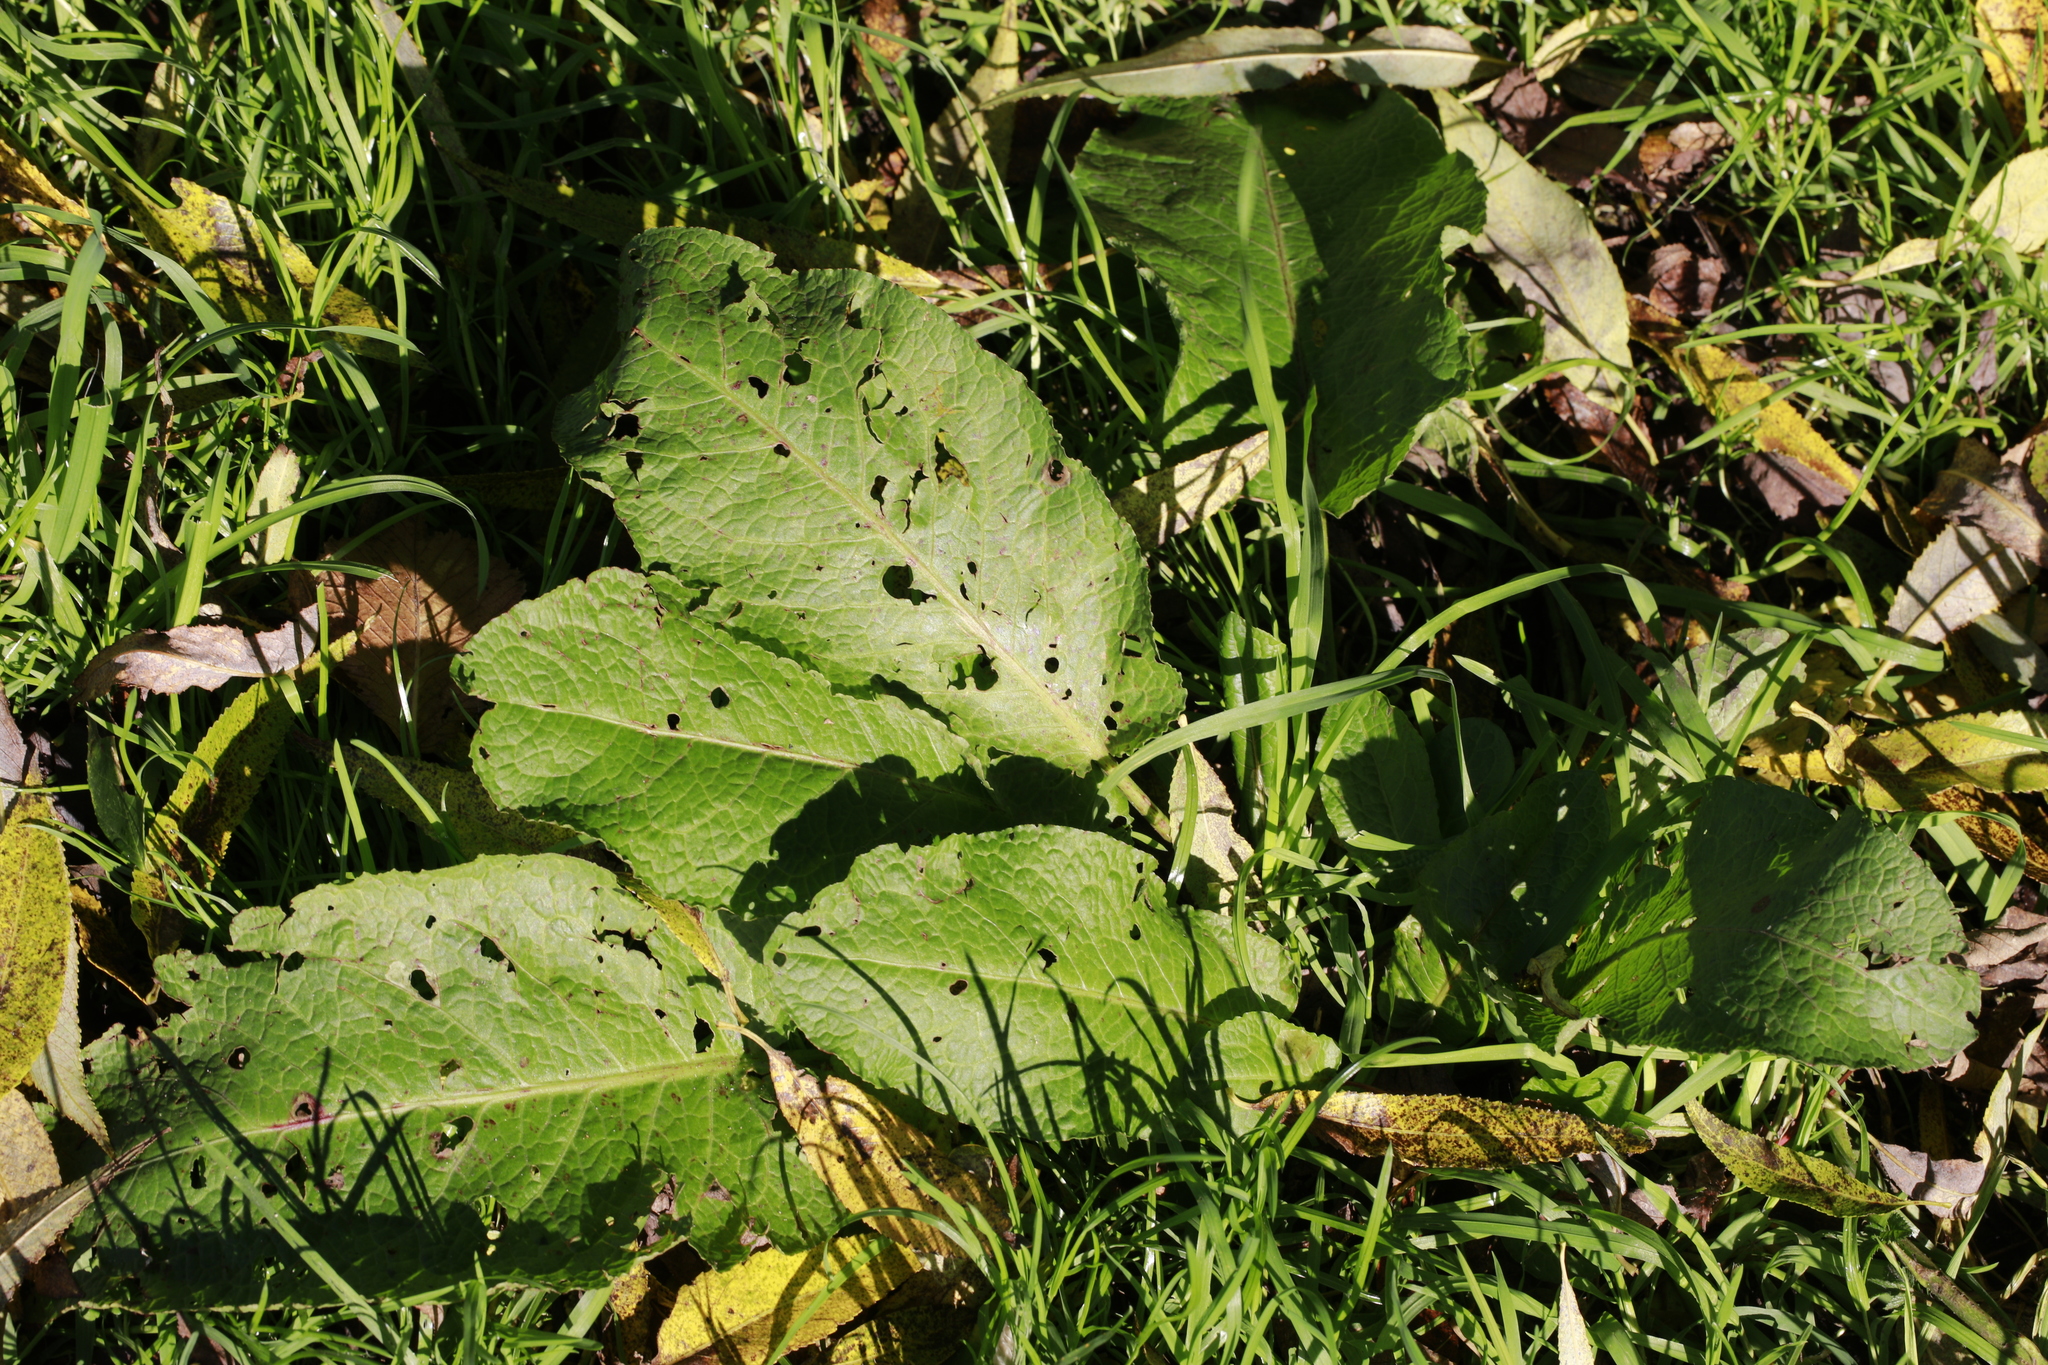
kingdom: Plantae
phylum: Tracheophyta
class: Magnoliopsida
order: Caryophyllales
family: Polygonaceae
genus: Rumex
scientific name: Rumex obtusifolius
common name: Bitter dock
